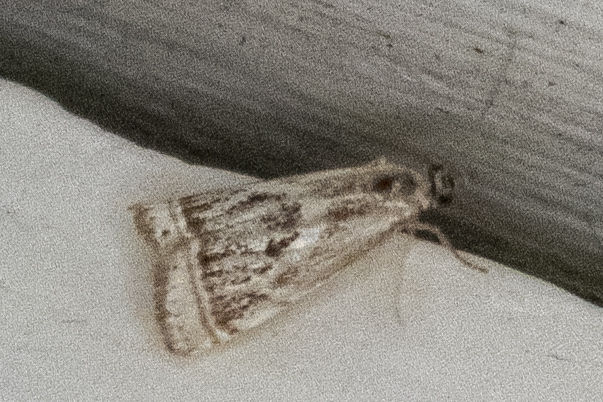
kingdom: Animalia
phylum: Arthropoda
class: Insecta
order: Lepidoptera
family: Crambidae
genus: Microcrambus
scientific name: Microcrambus elegans
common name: Elegant grass-veneer
